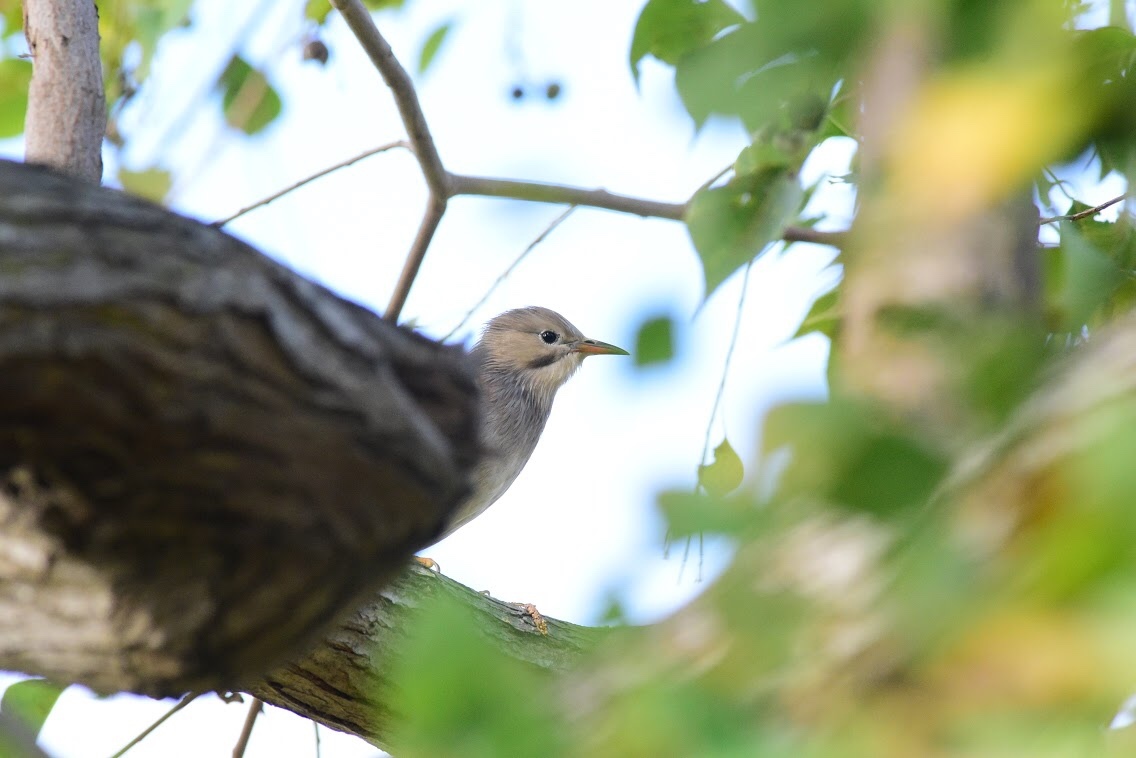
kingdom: Animalia
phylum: Chordata
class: Aves
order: Passeriformes
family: Sturnidae
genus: Spodiopsar
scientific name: Spodiopsar sericeus
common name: Red-billed starling
